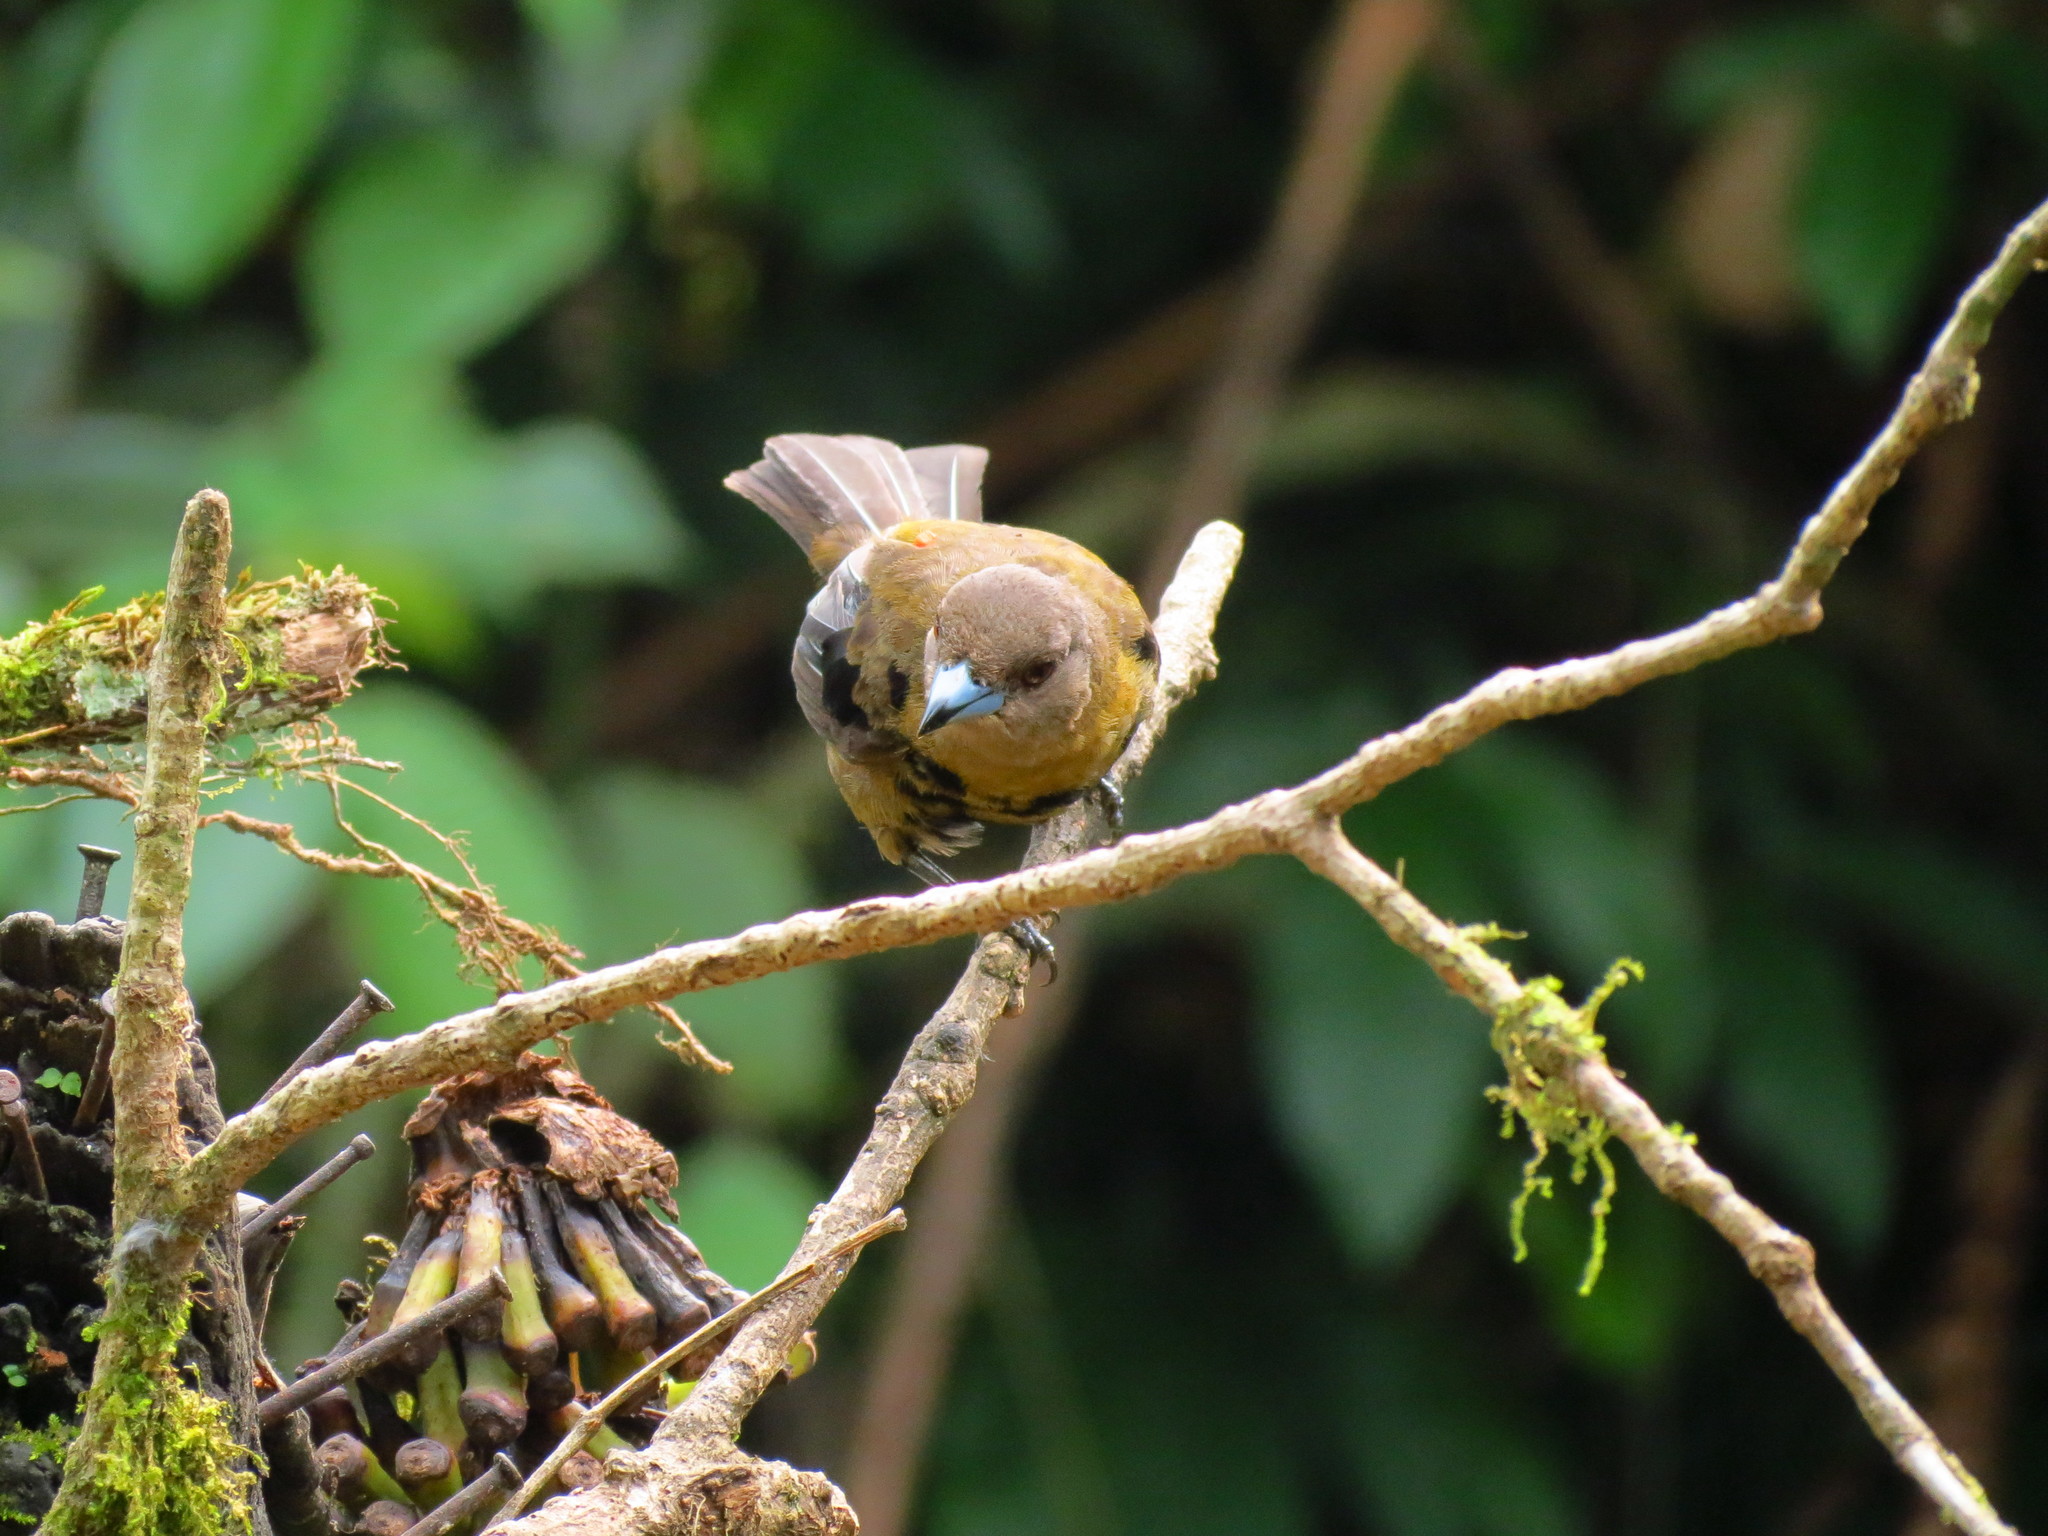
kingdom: Animalia
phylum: Chordata
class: Aves
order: Passeriformes
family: Thraupidae
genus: Ramphocelus
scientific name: Ramphocelus passerinii
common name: Passerini's tanager
